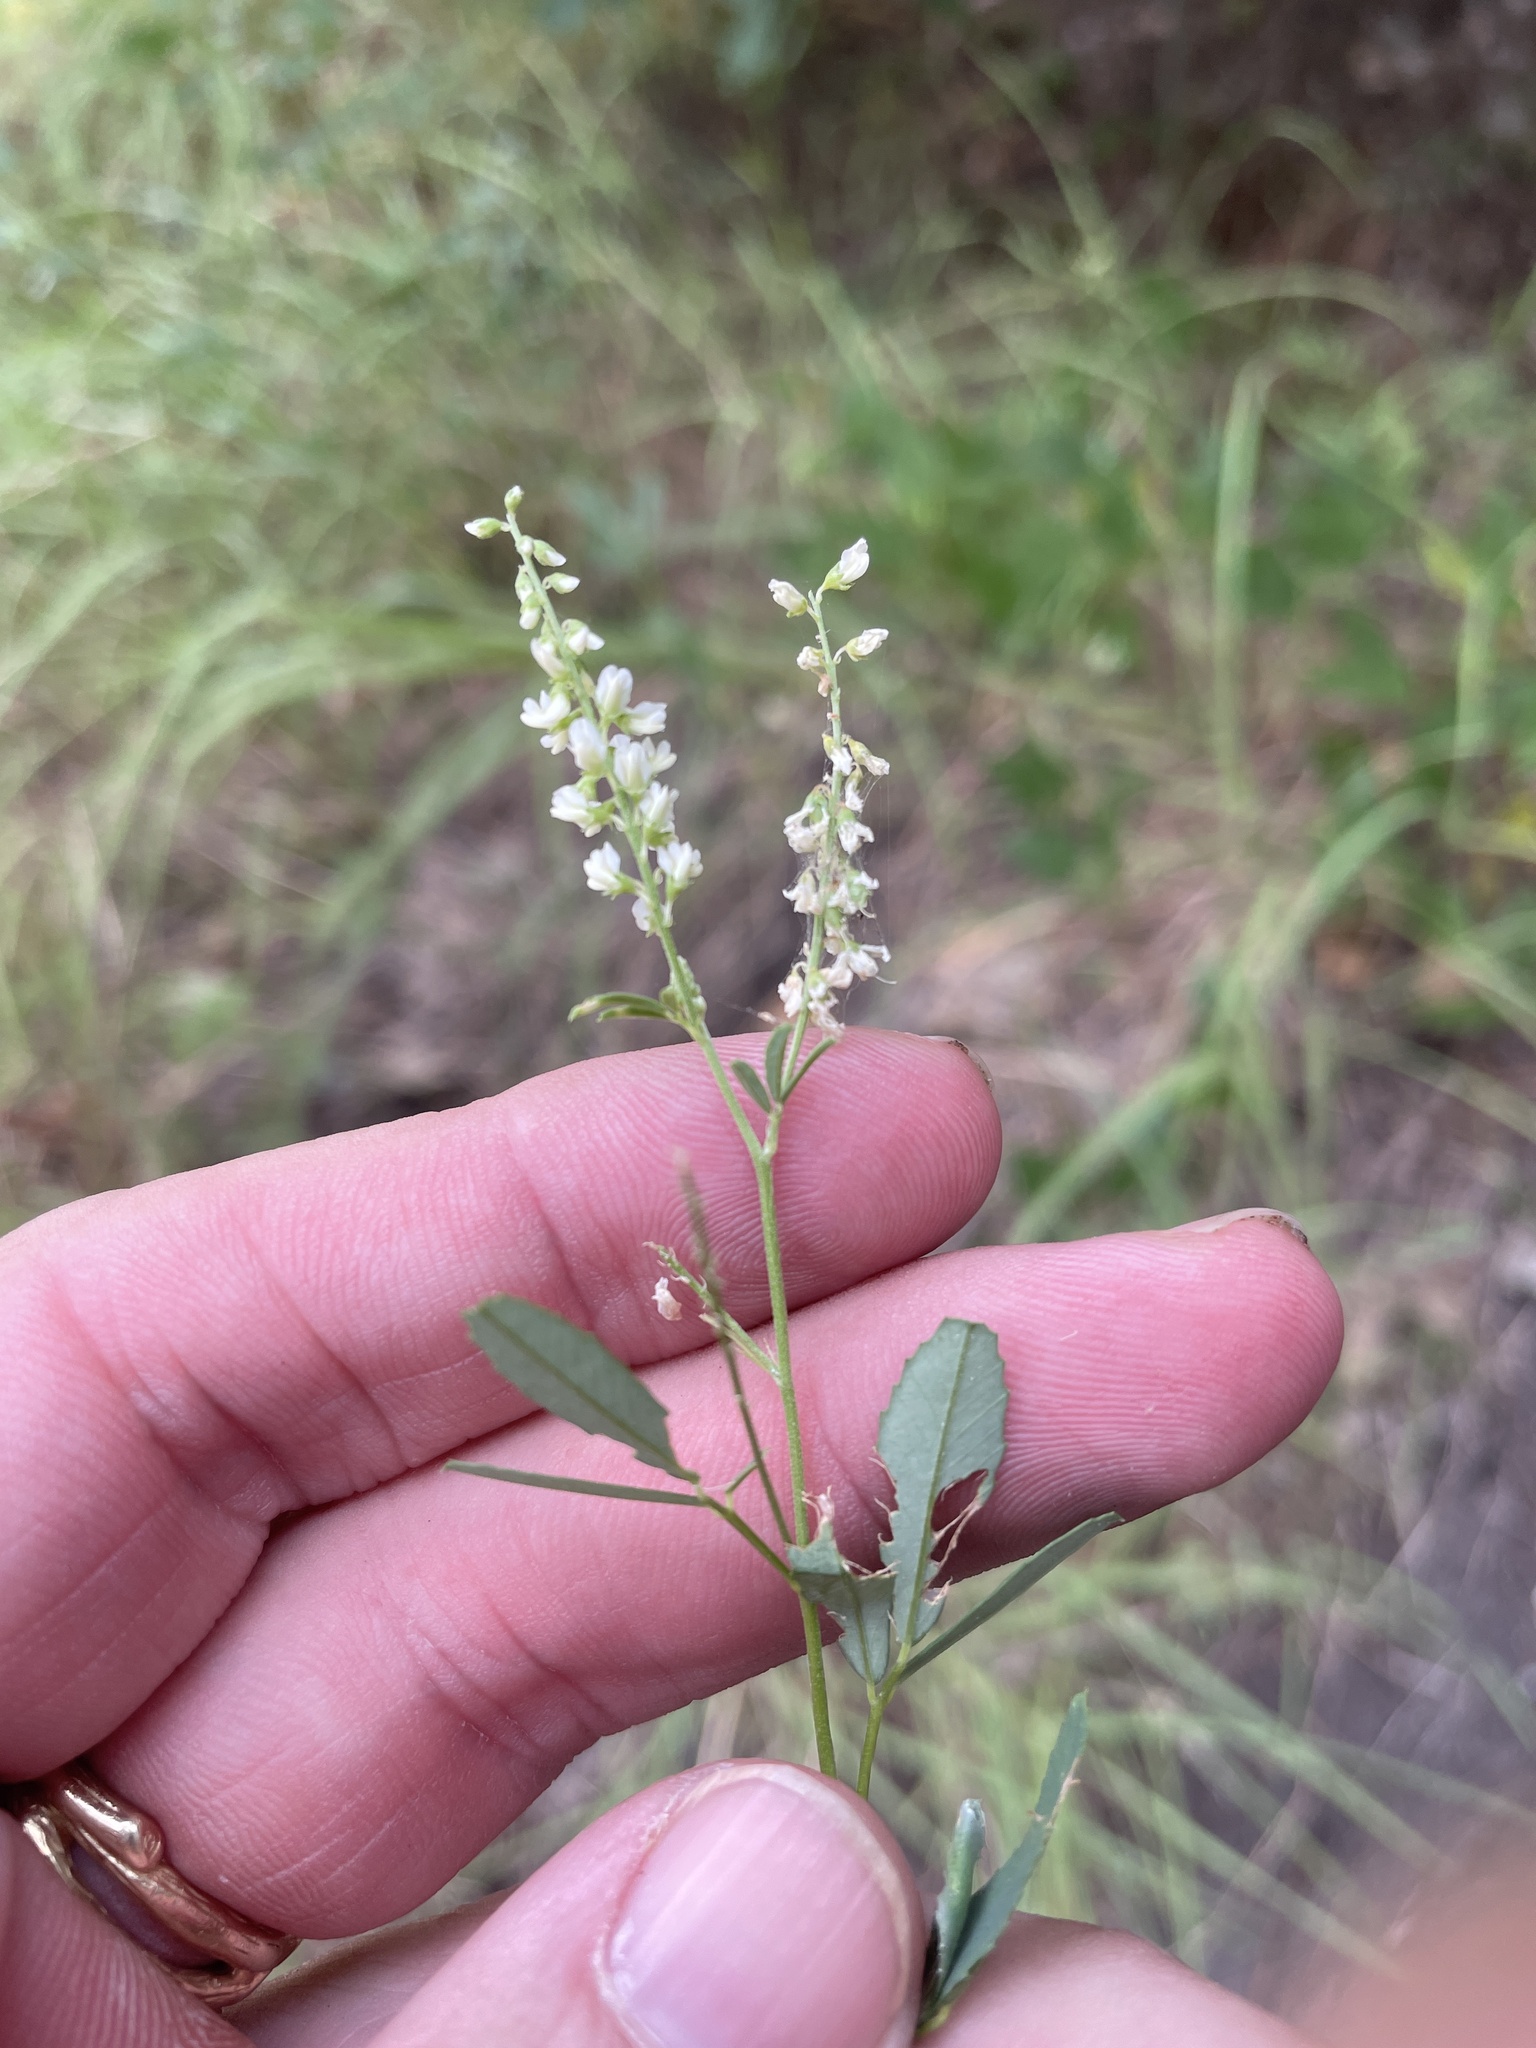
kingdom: Plantae
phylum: Tracheophyta
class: Magnoliopsida
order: Fabales
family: Fabaceae
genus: Melilotus
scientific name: Melilotus albus
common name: White melilot
